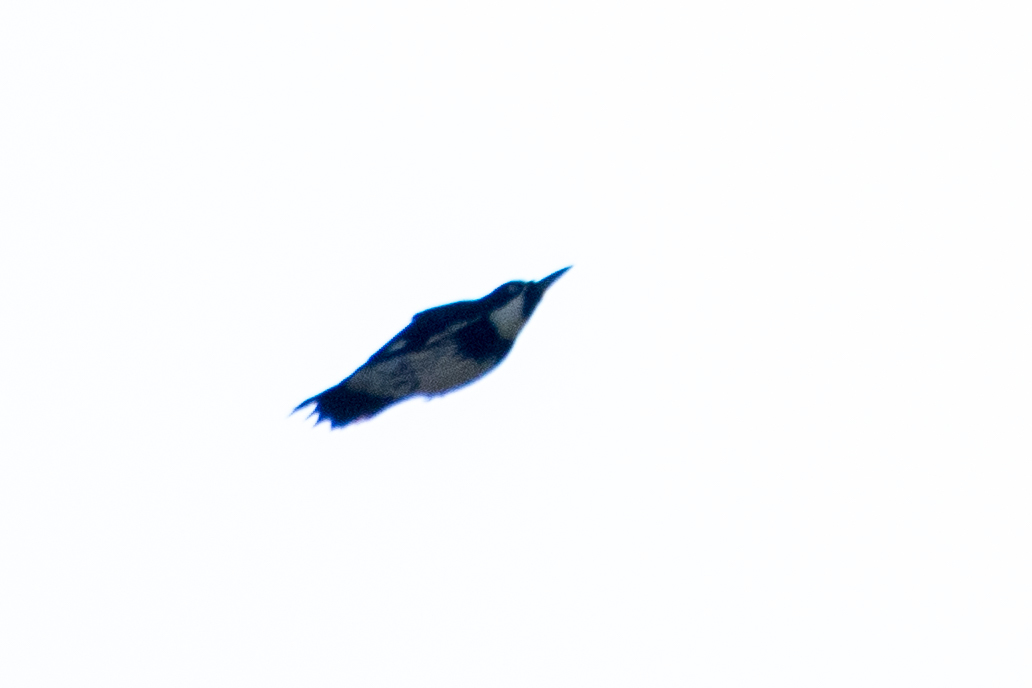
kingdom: Animalia
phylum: Chordata
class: Aves
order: Piciformes
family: Picidae
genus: Melanerpes
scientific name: Melanerpes formicivorus
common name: Acorn woodpecker
